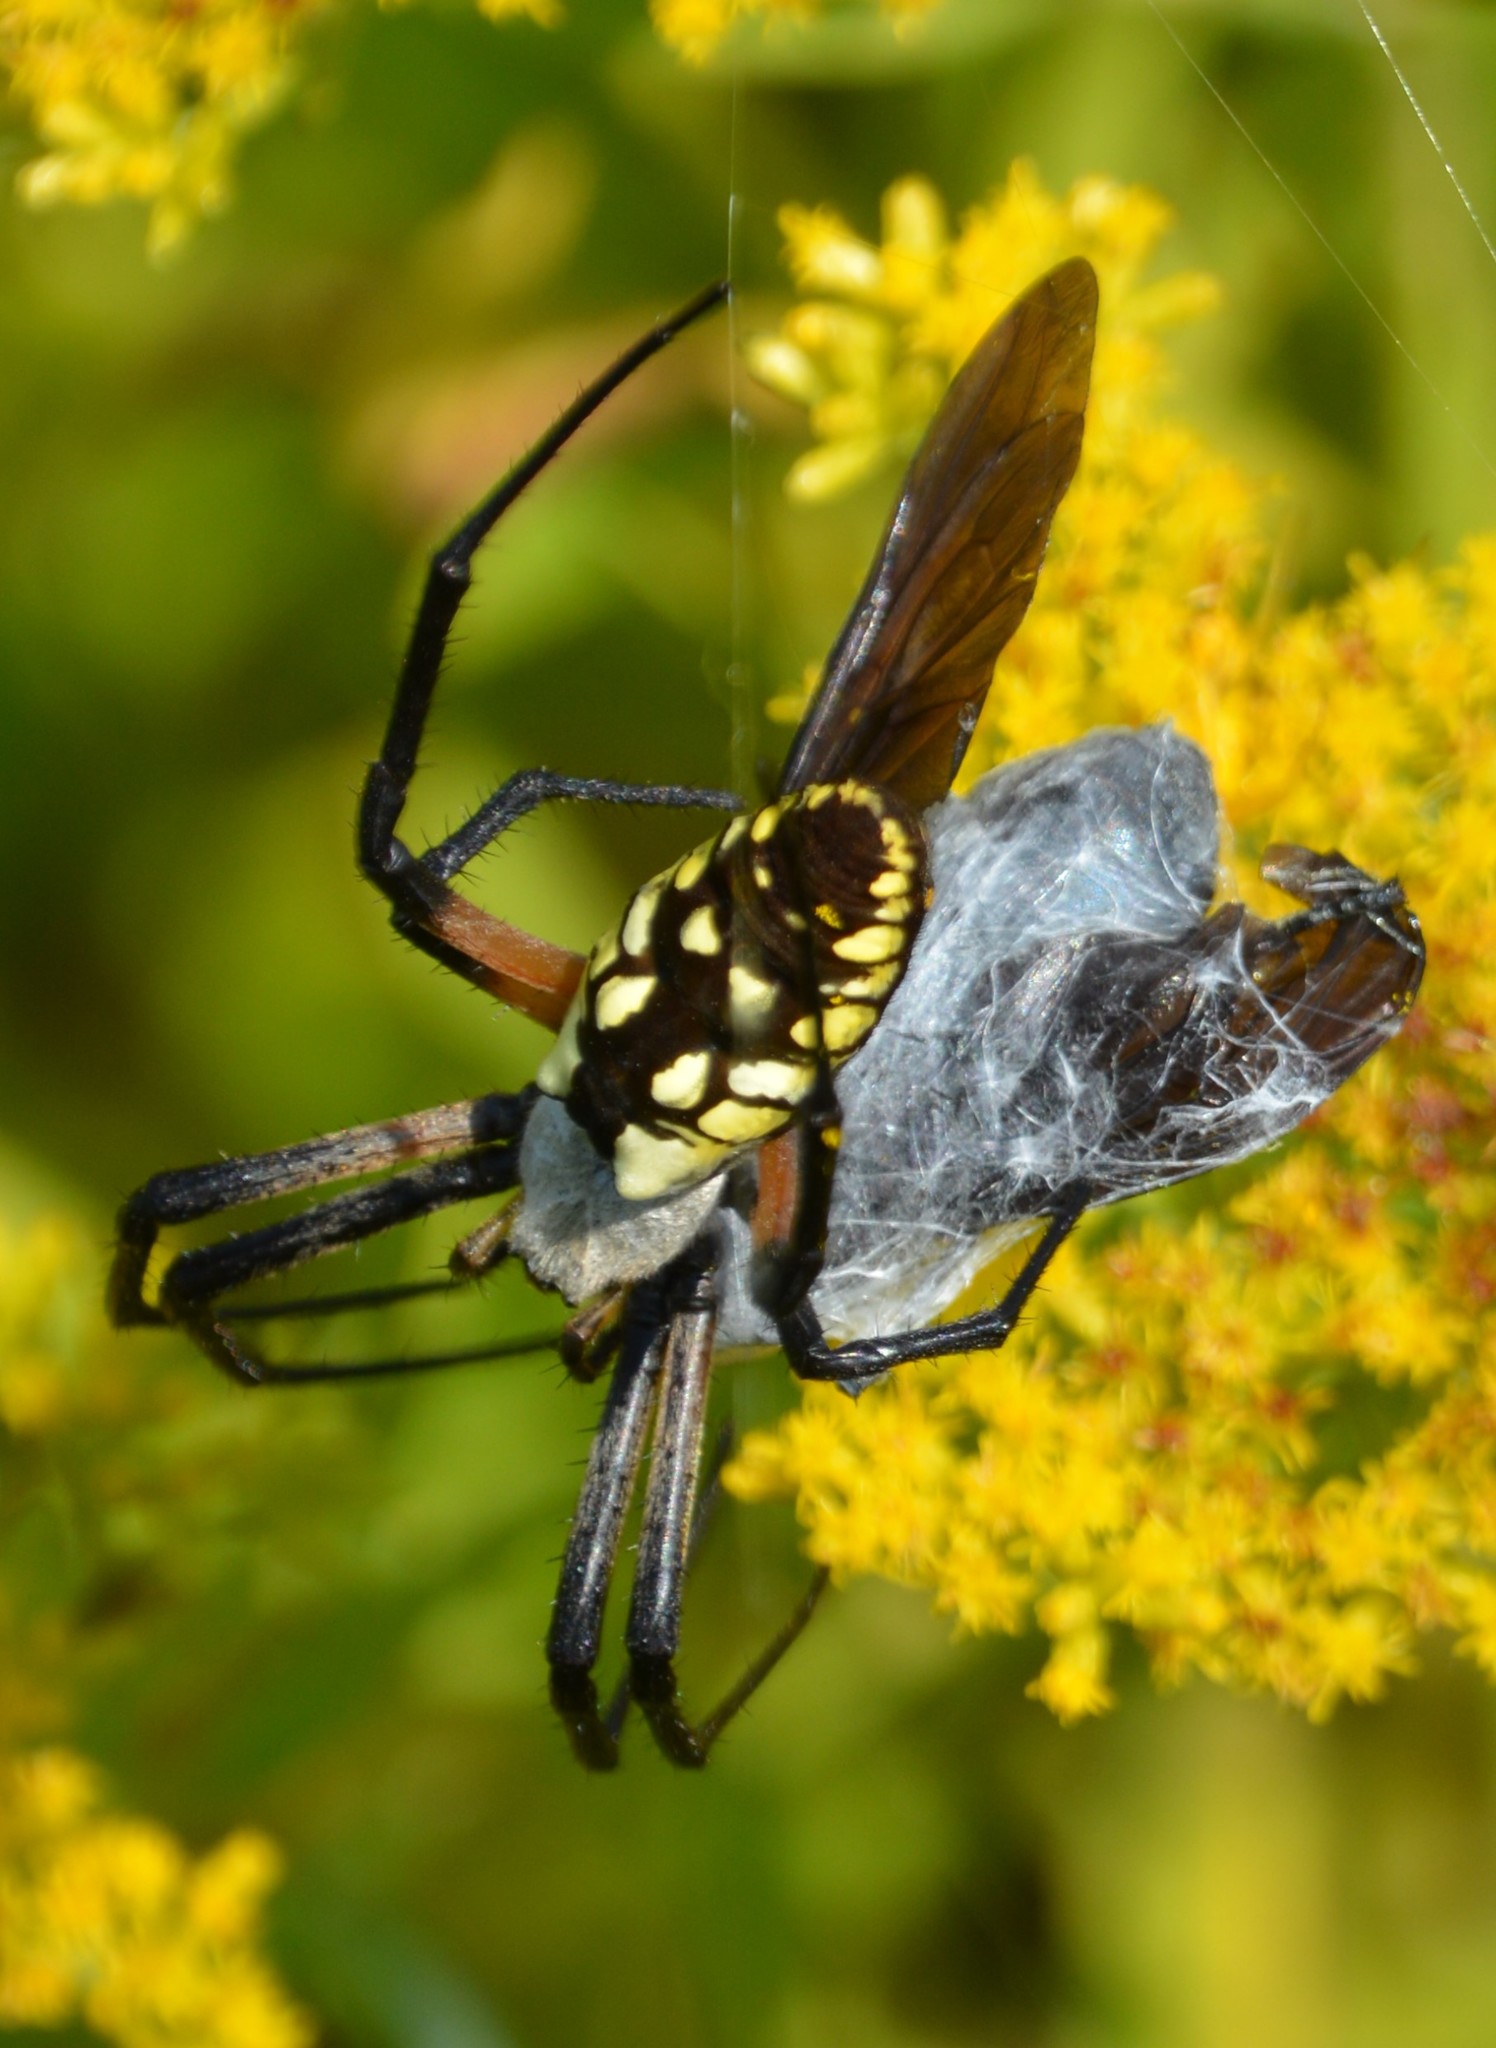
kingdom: Animalia
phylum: Arthropoda
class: Arachnida
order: Araneae
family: Araneidae
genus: Argiope
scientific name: Argiope aurantia
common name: Orb weavers
